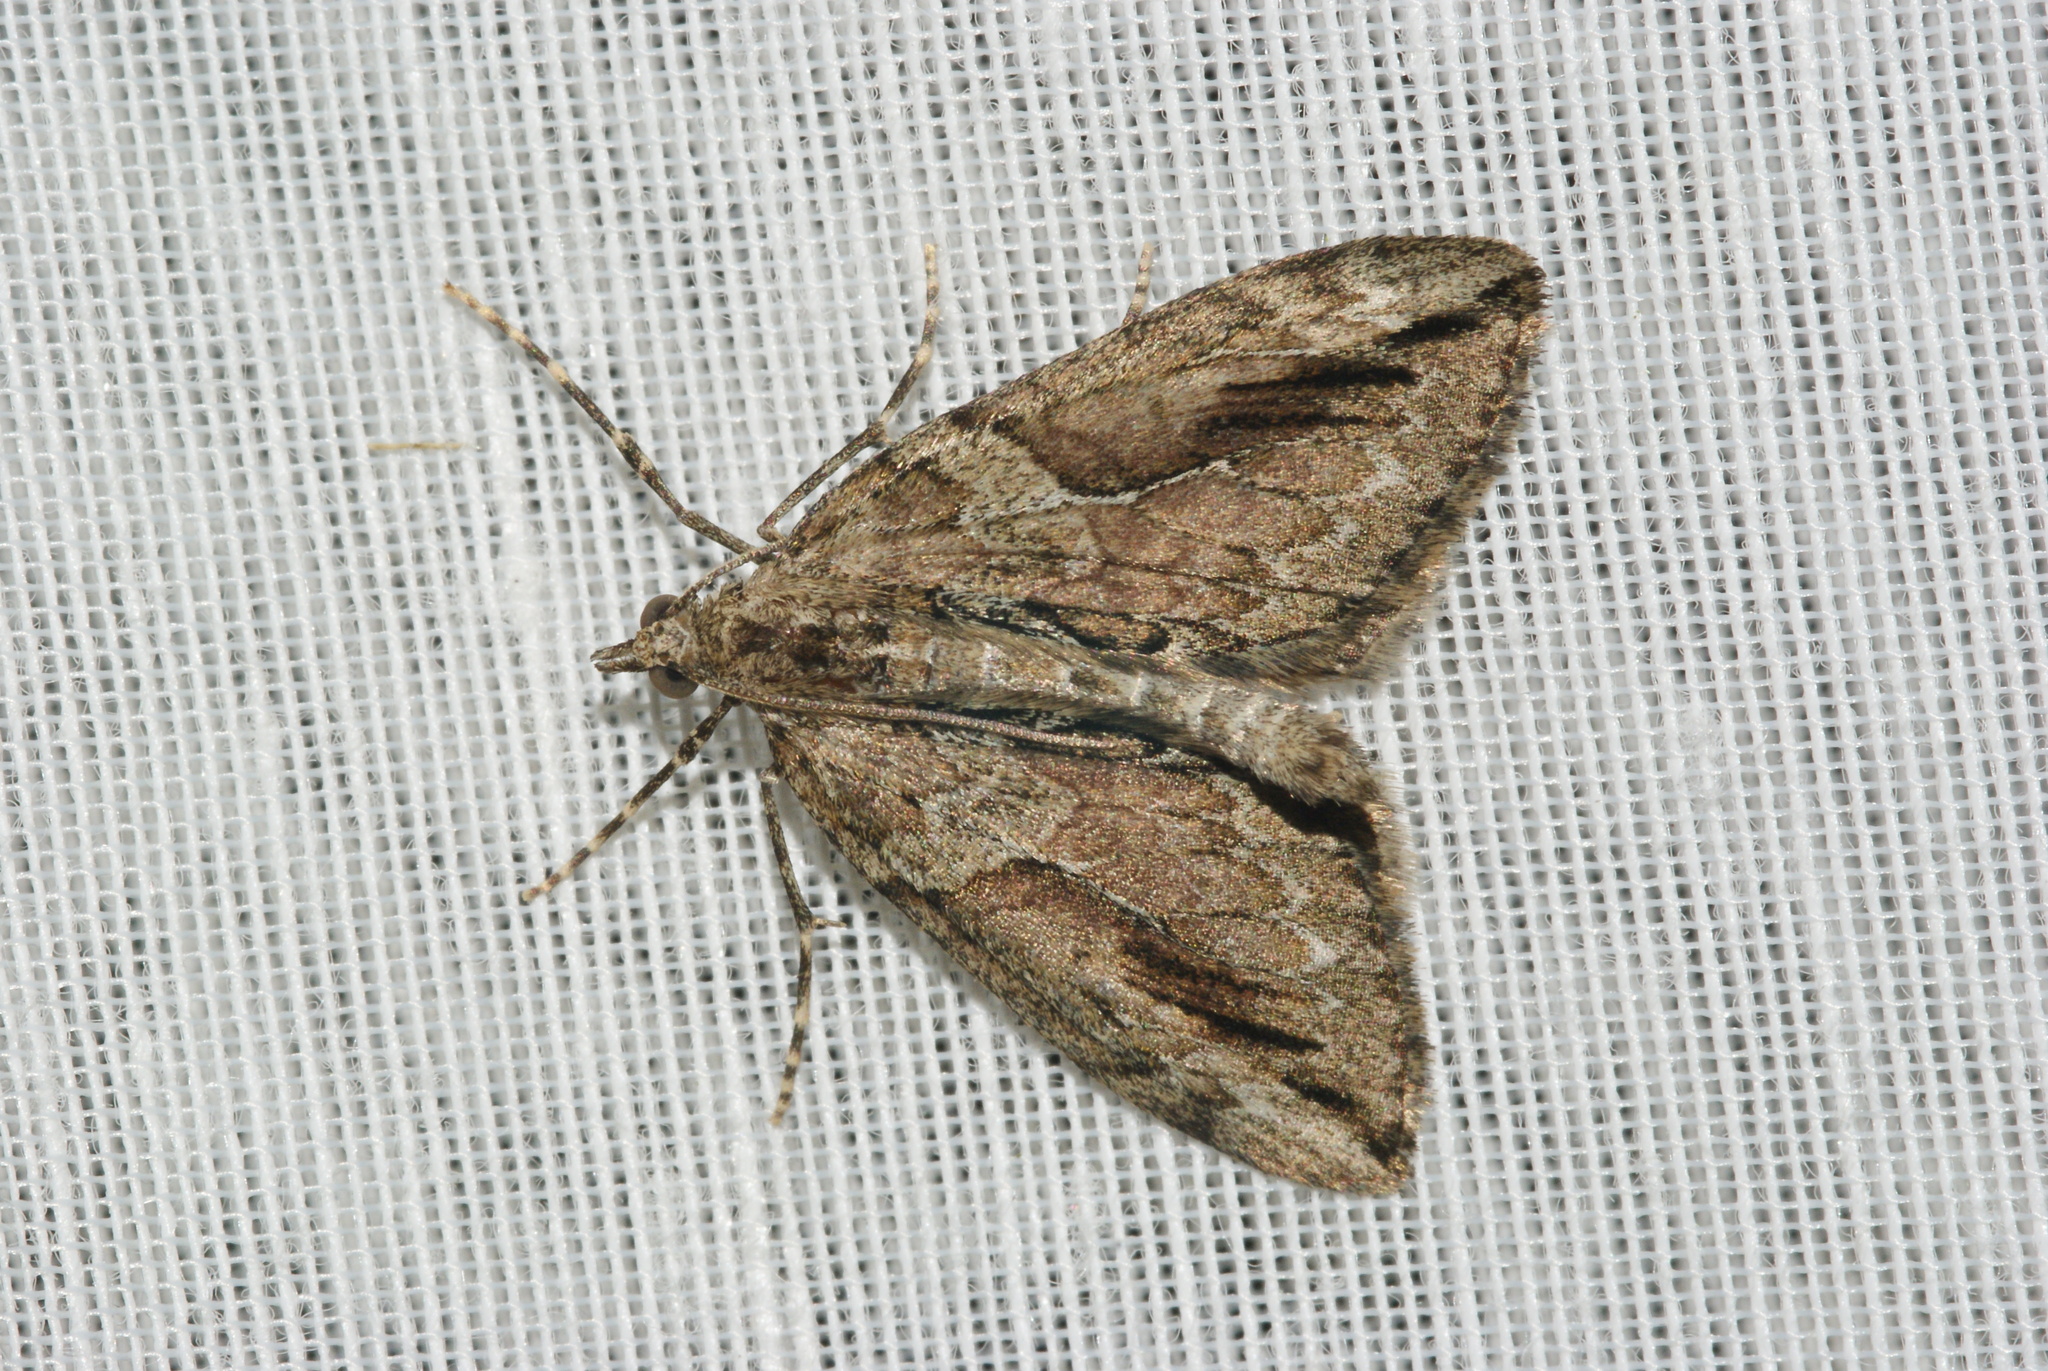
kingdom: Animalia
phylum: Arthropoda
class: Insecta
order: Lepidoptera
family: Geometridae
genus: Thera
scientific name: Thera cupressata
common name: Cypress carpet
